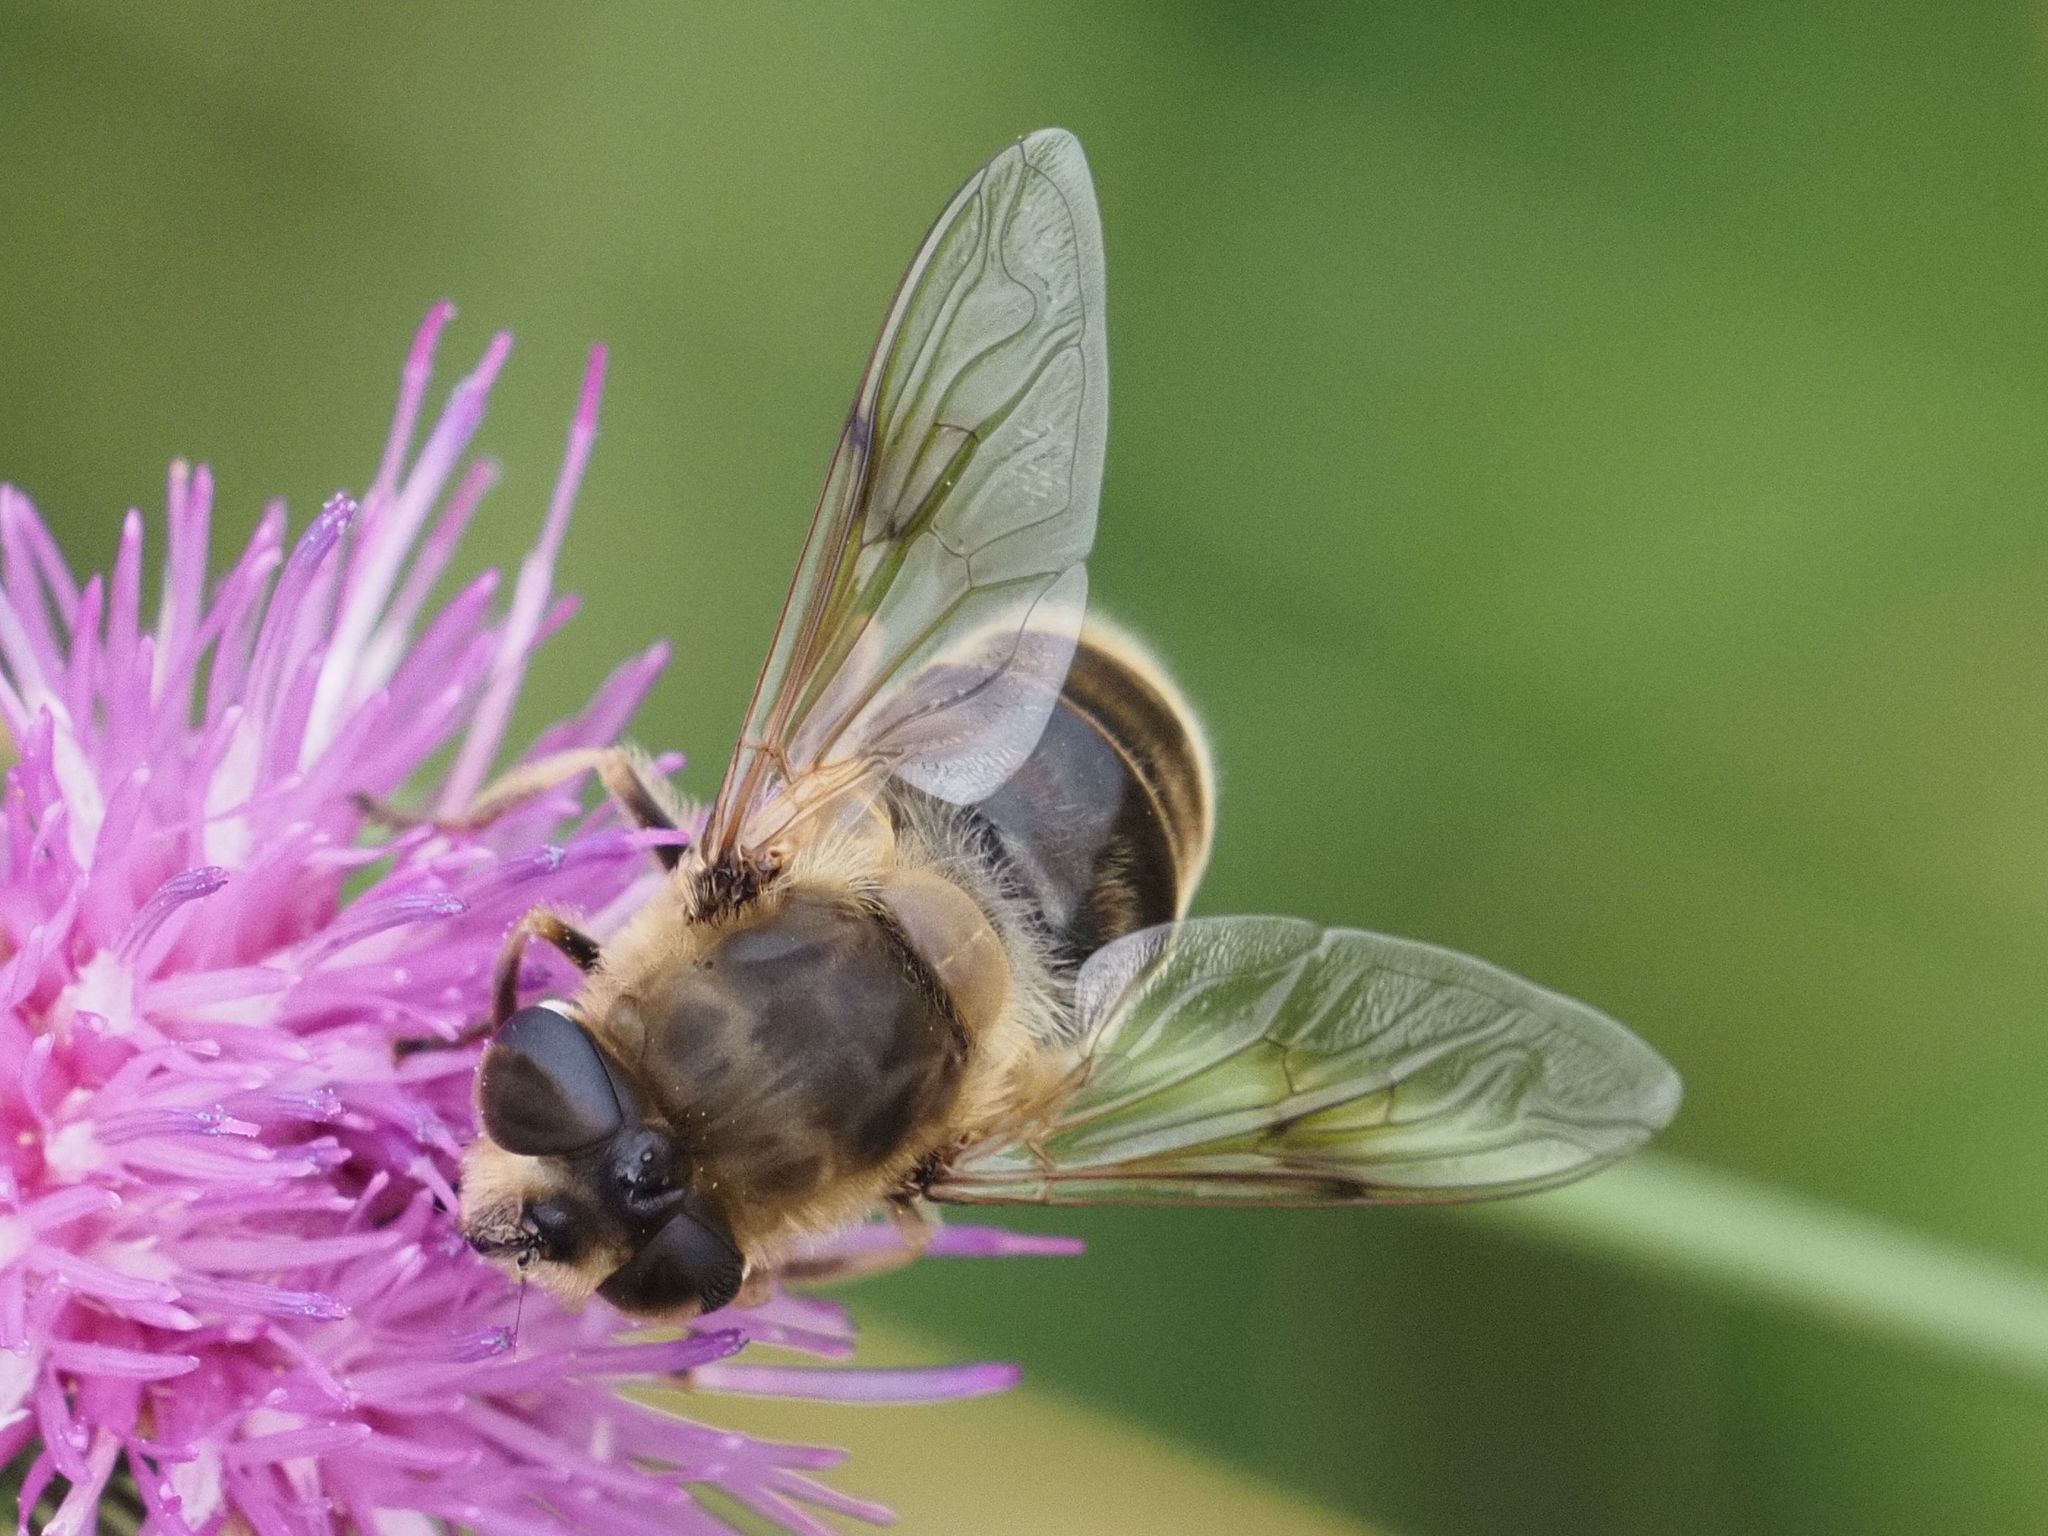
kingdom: Animalia
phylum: Arthropoda
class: Insecta
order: Diptera
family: Syrphidae
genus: Eristalis
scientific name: Eristalis tenax
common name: Drone fly
